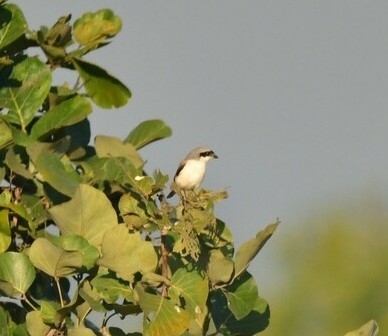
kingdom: Animalia
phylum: Chordata
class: Aves
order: Passeriformes
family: Laniidae
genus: Lanius
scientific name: Lanius excubitor
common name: Great grey shrike
